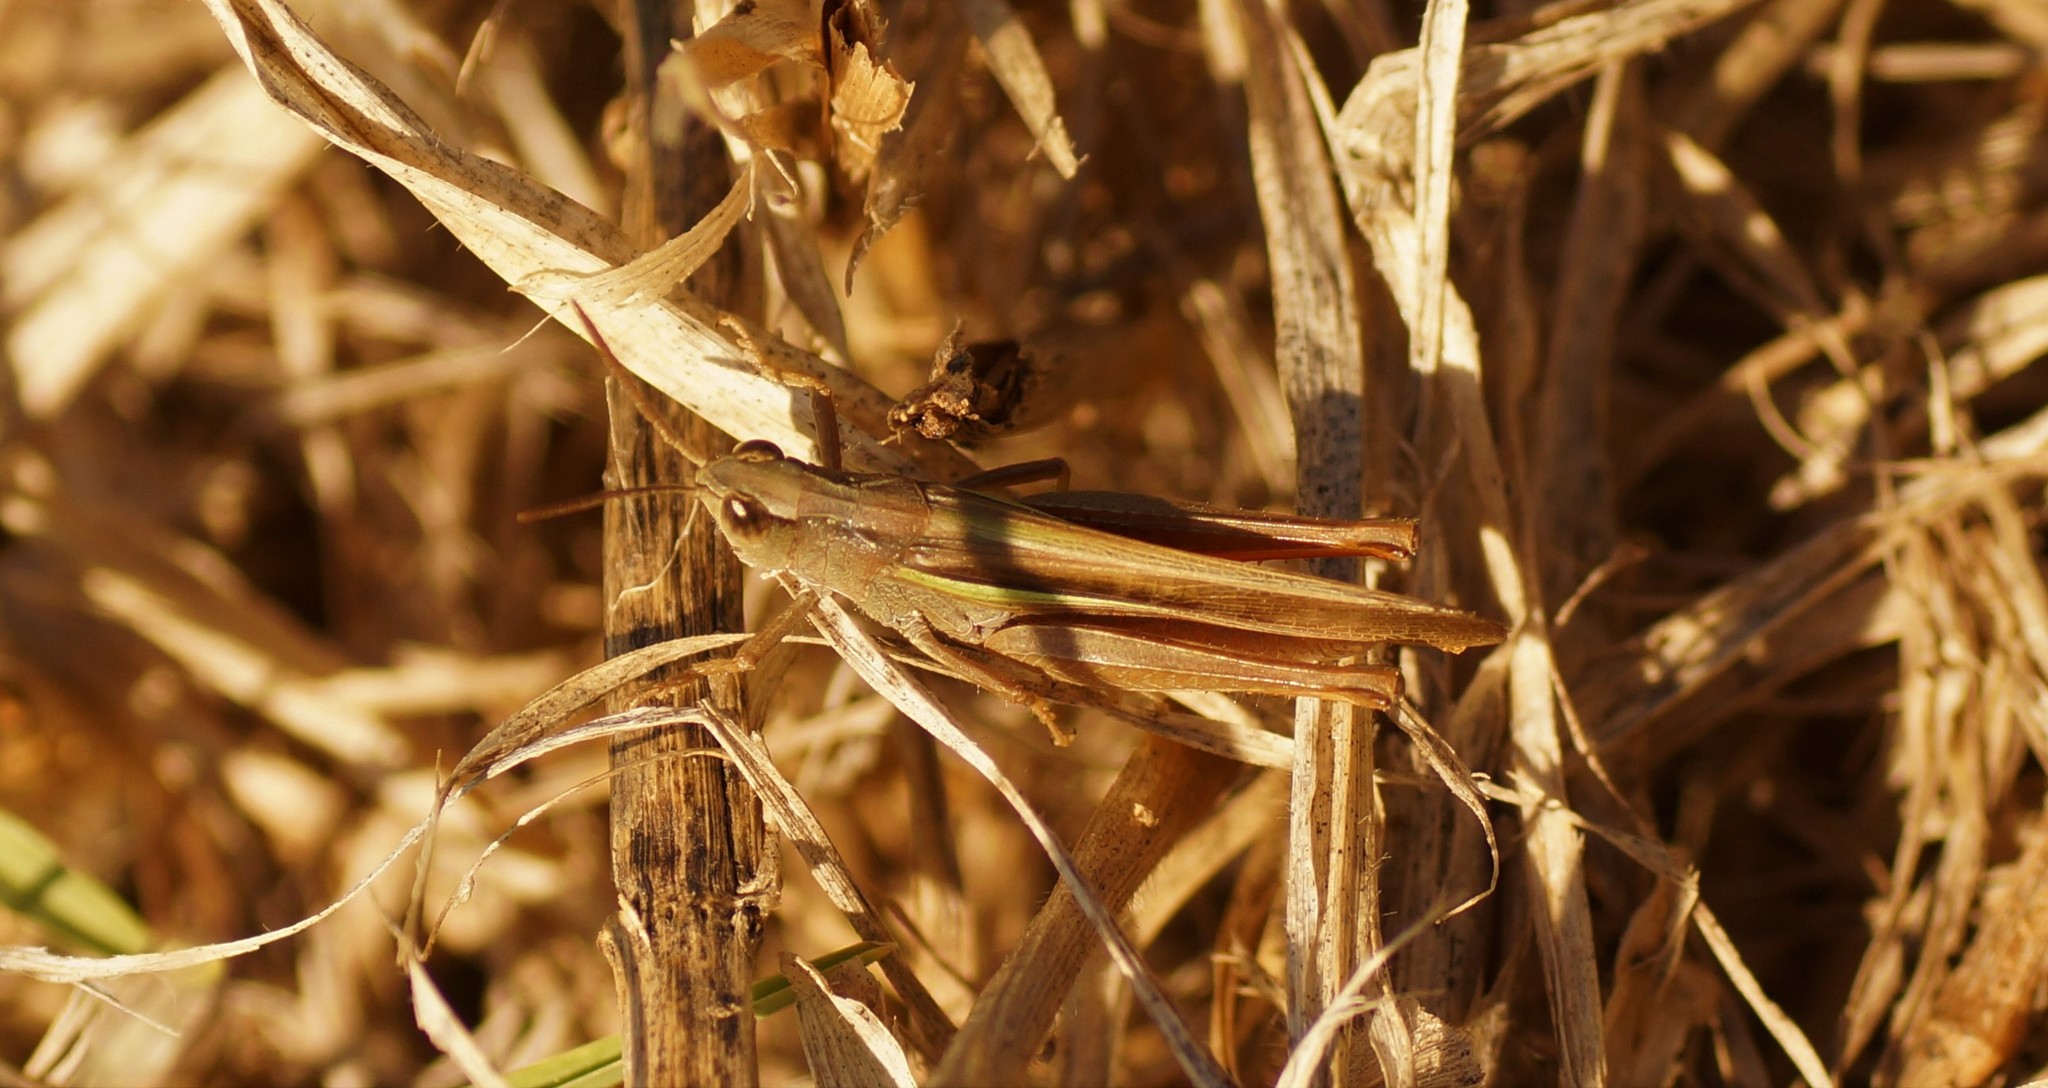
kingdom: Animalia
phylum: Arthropoda
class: Insecta
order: Orthoptera
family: Acrididae
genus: Schizobothrus
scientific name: Schizobothrus flavovittatus
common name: Disappearing grasshopper
